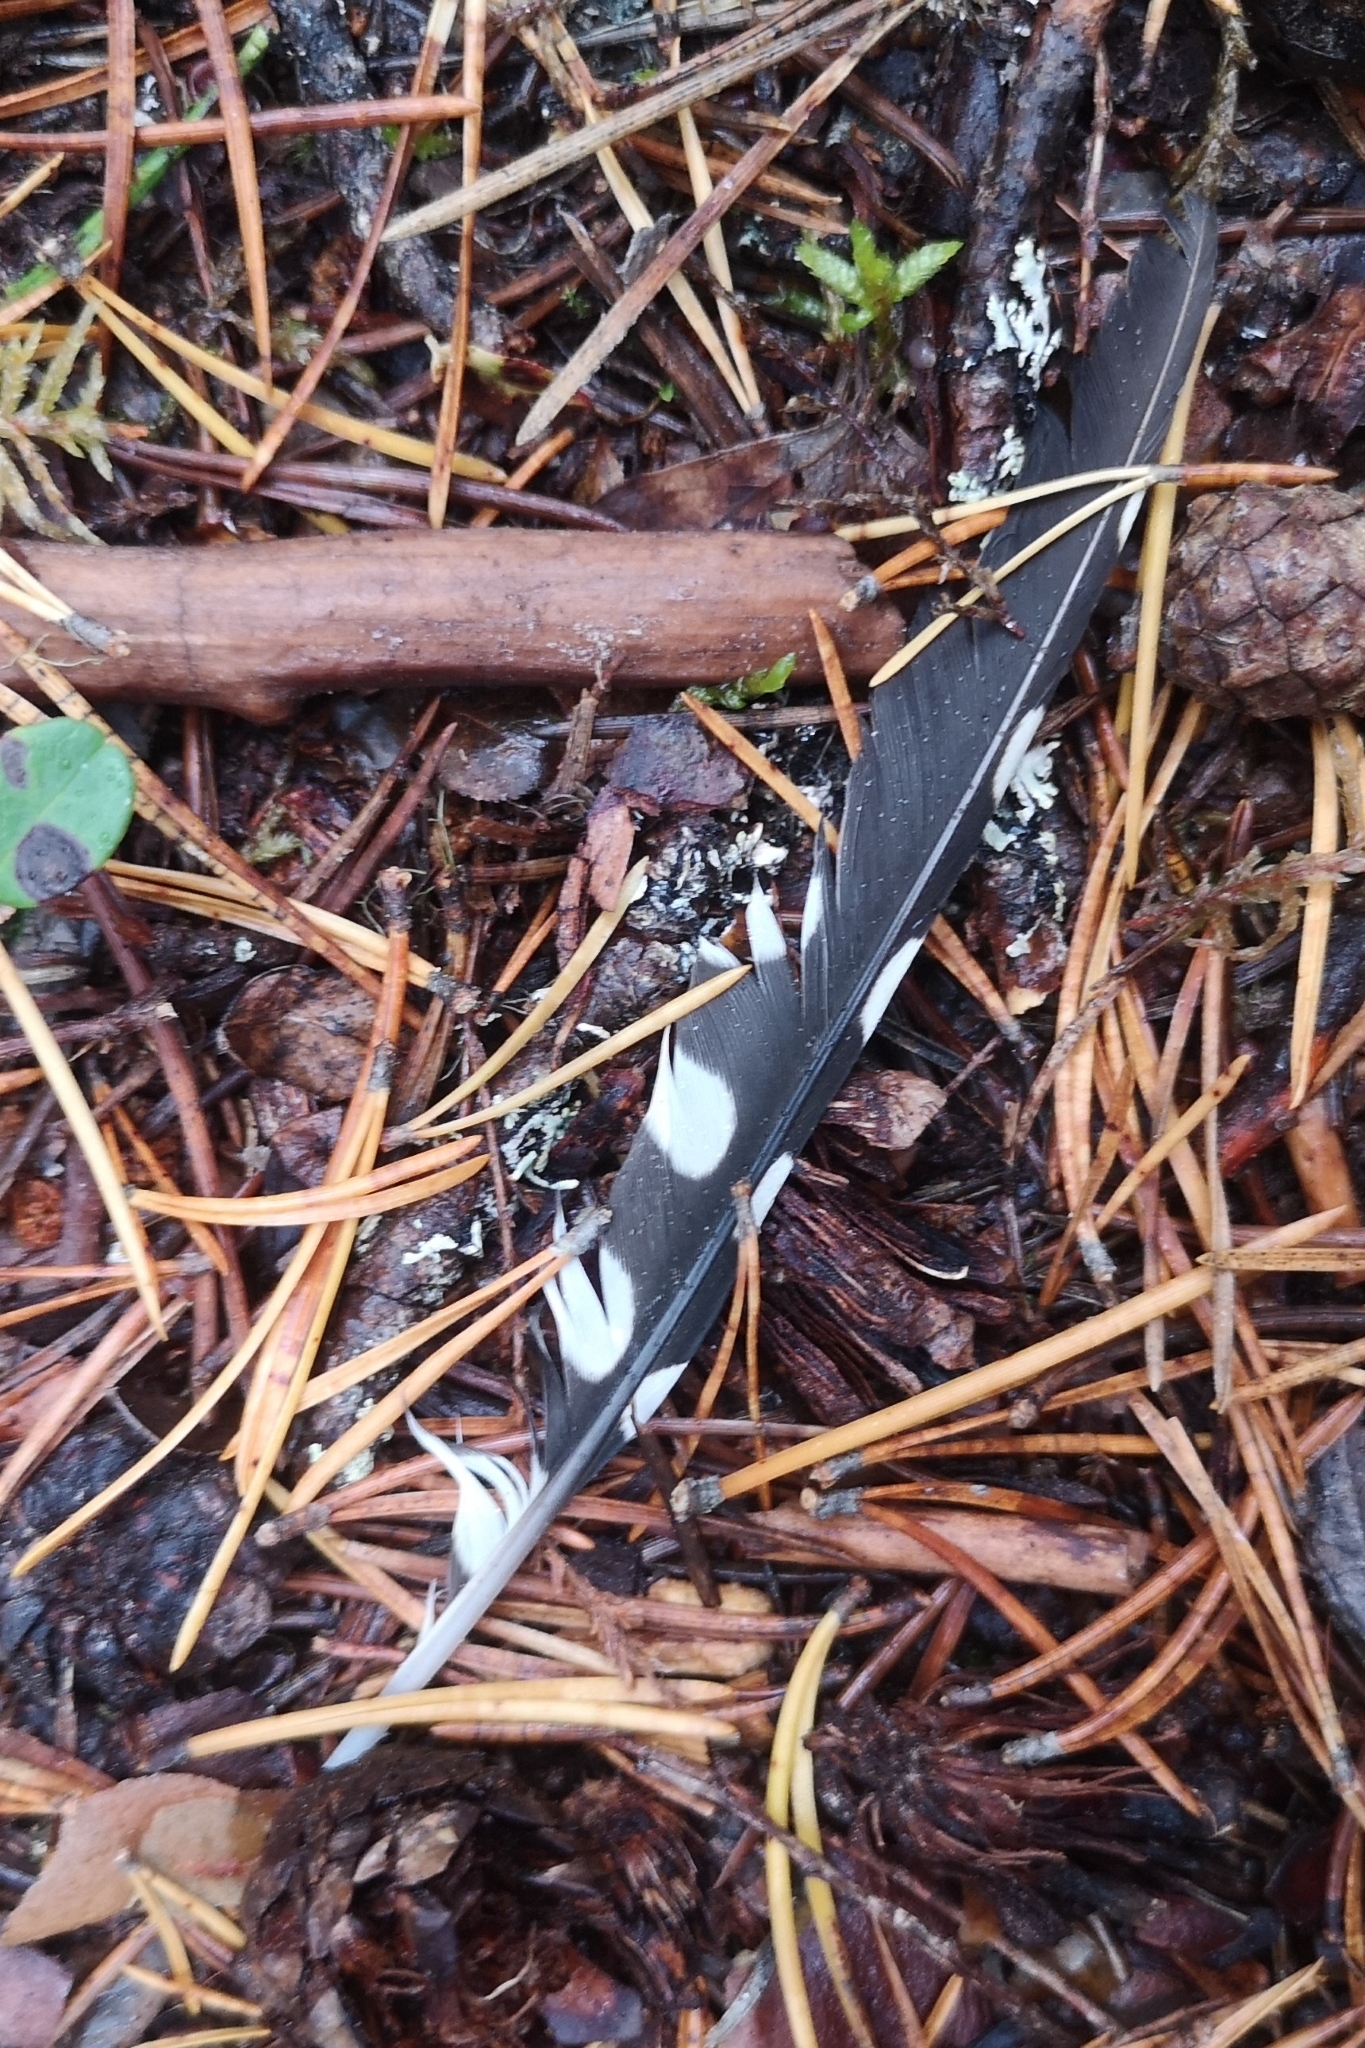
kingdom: Animalia
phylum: Chordata
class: Aves
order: Piciformes
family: Picidae
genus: Dendrocopos
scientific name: Dendrocopos major
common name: Great spotted woodpecker
